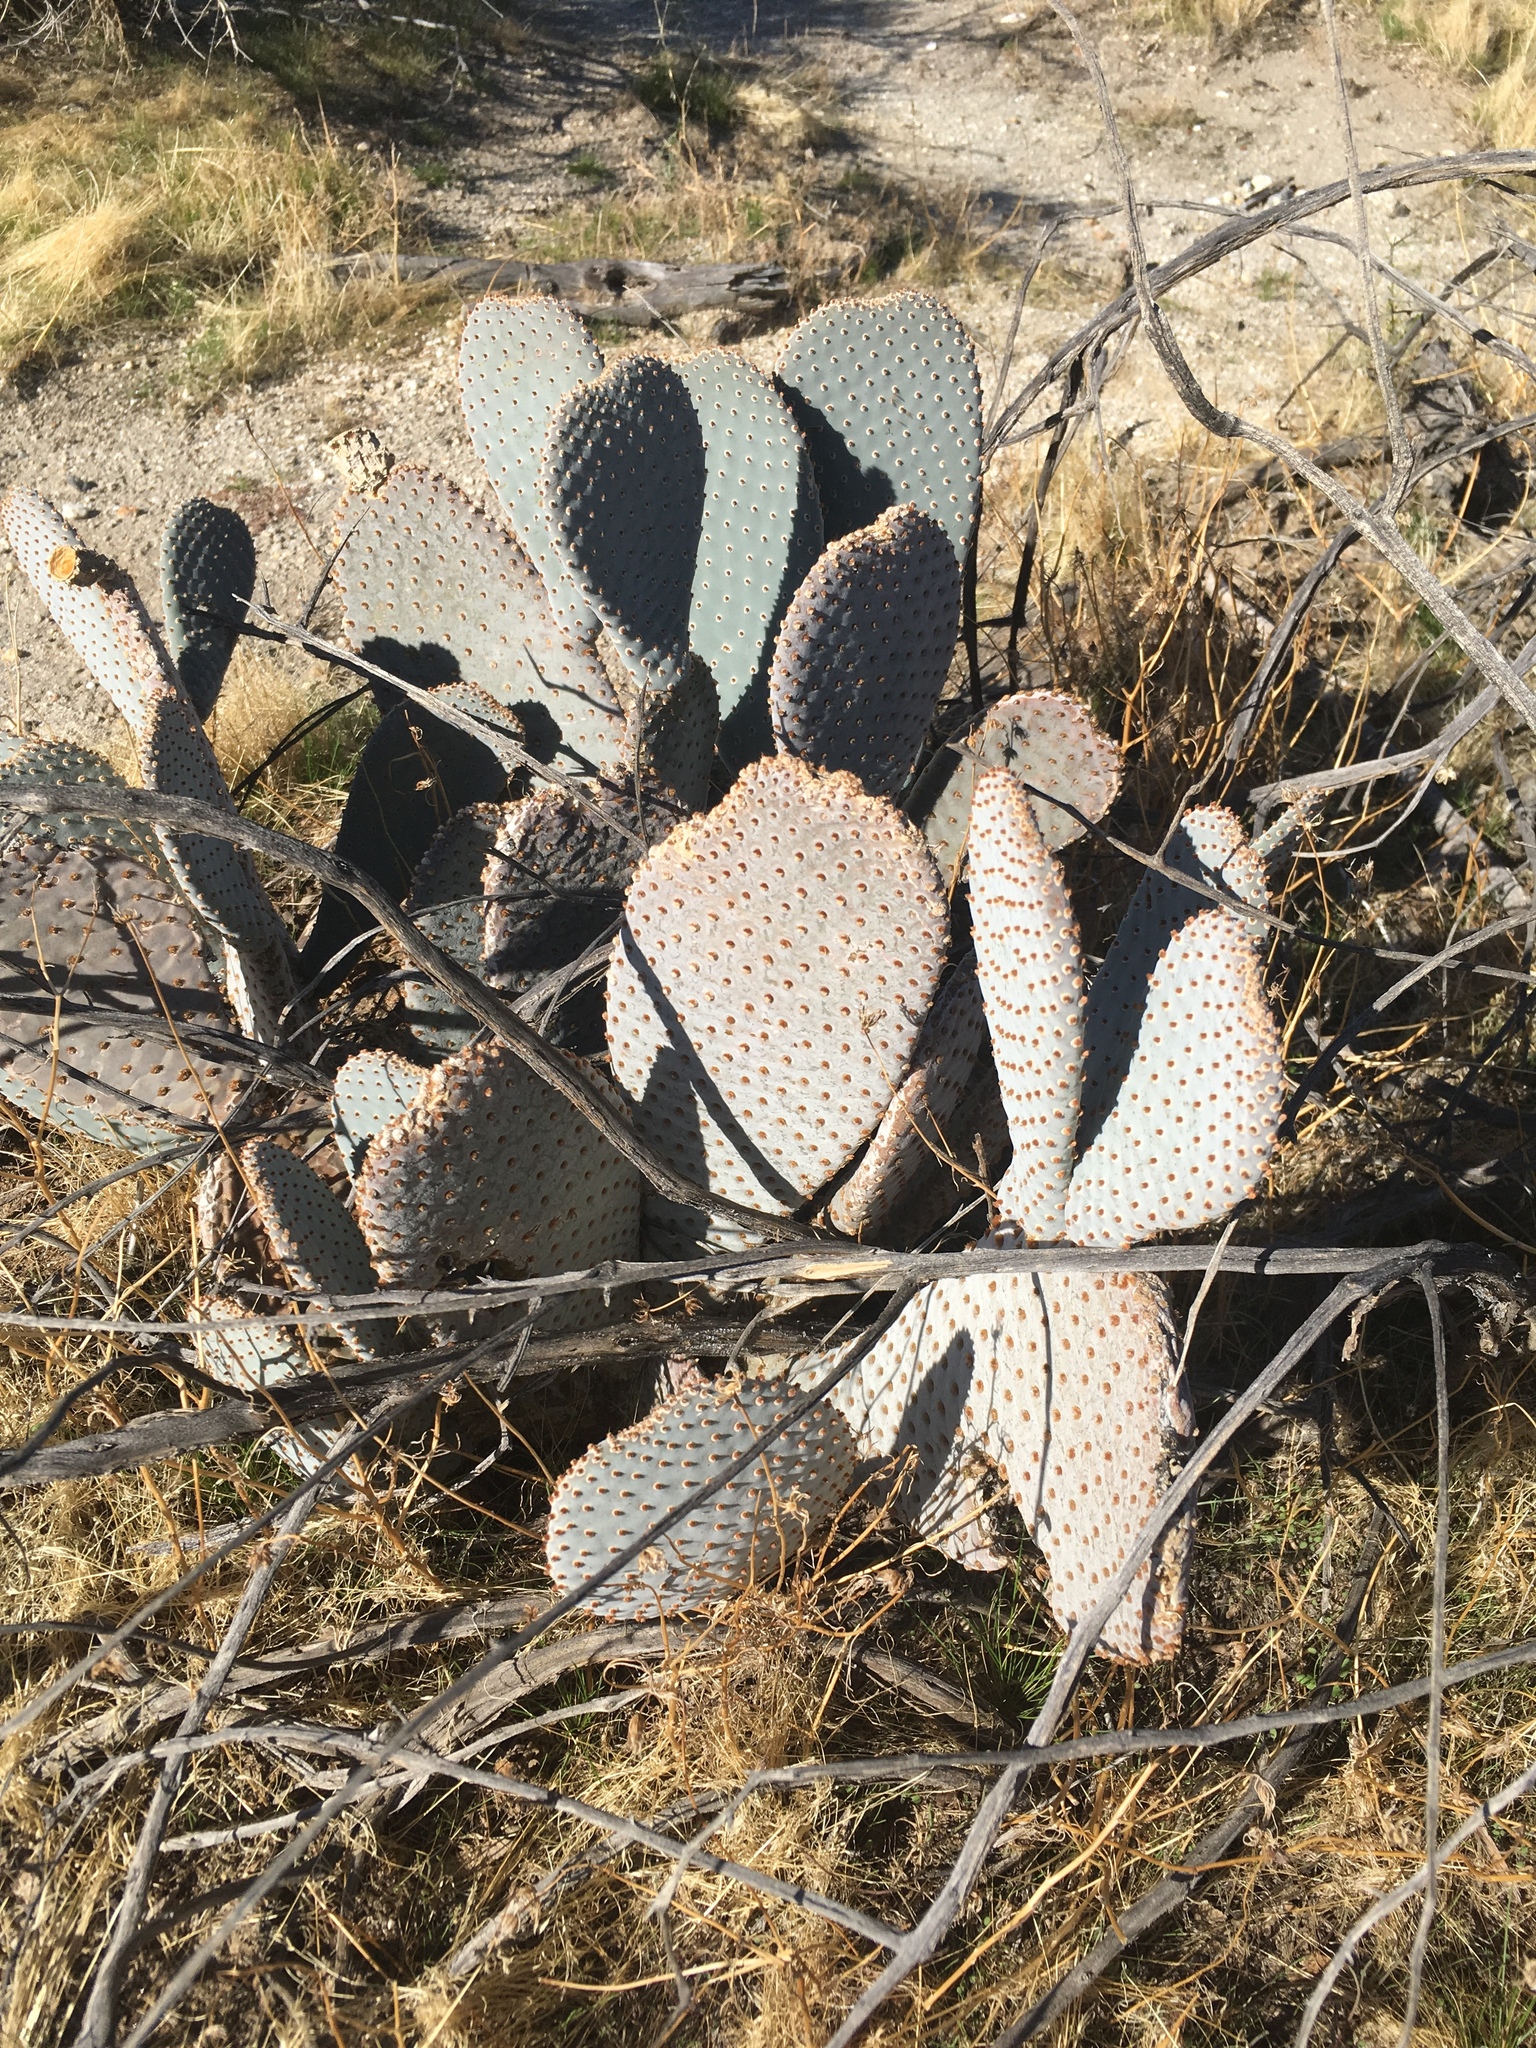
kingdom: Plantae
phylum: Tracheophyta
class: Magnoliopsida
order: Caryophyllales
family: Cactaceae
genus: Opuntia
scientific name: Opuntia basilaris
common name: Beavertail prickly-pear
